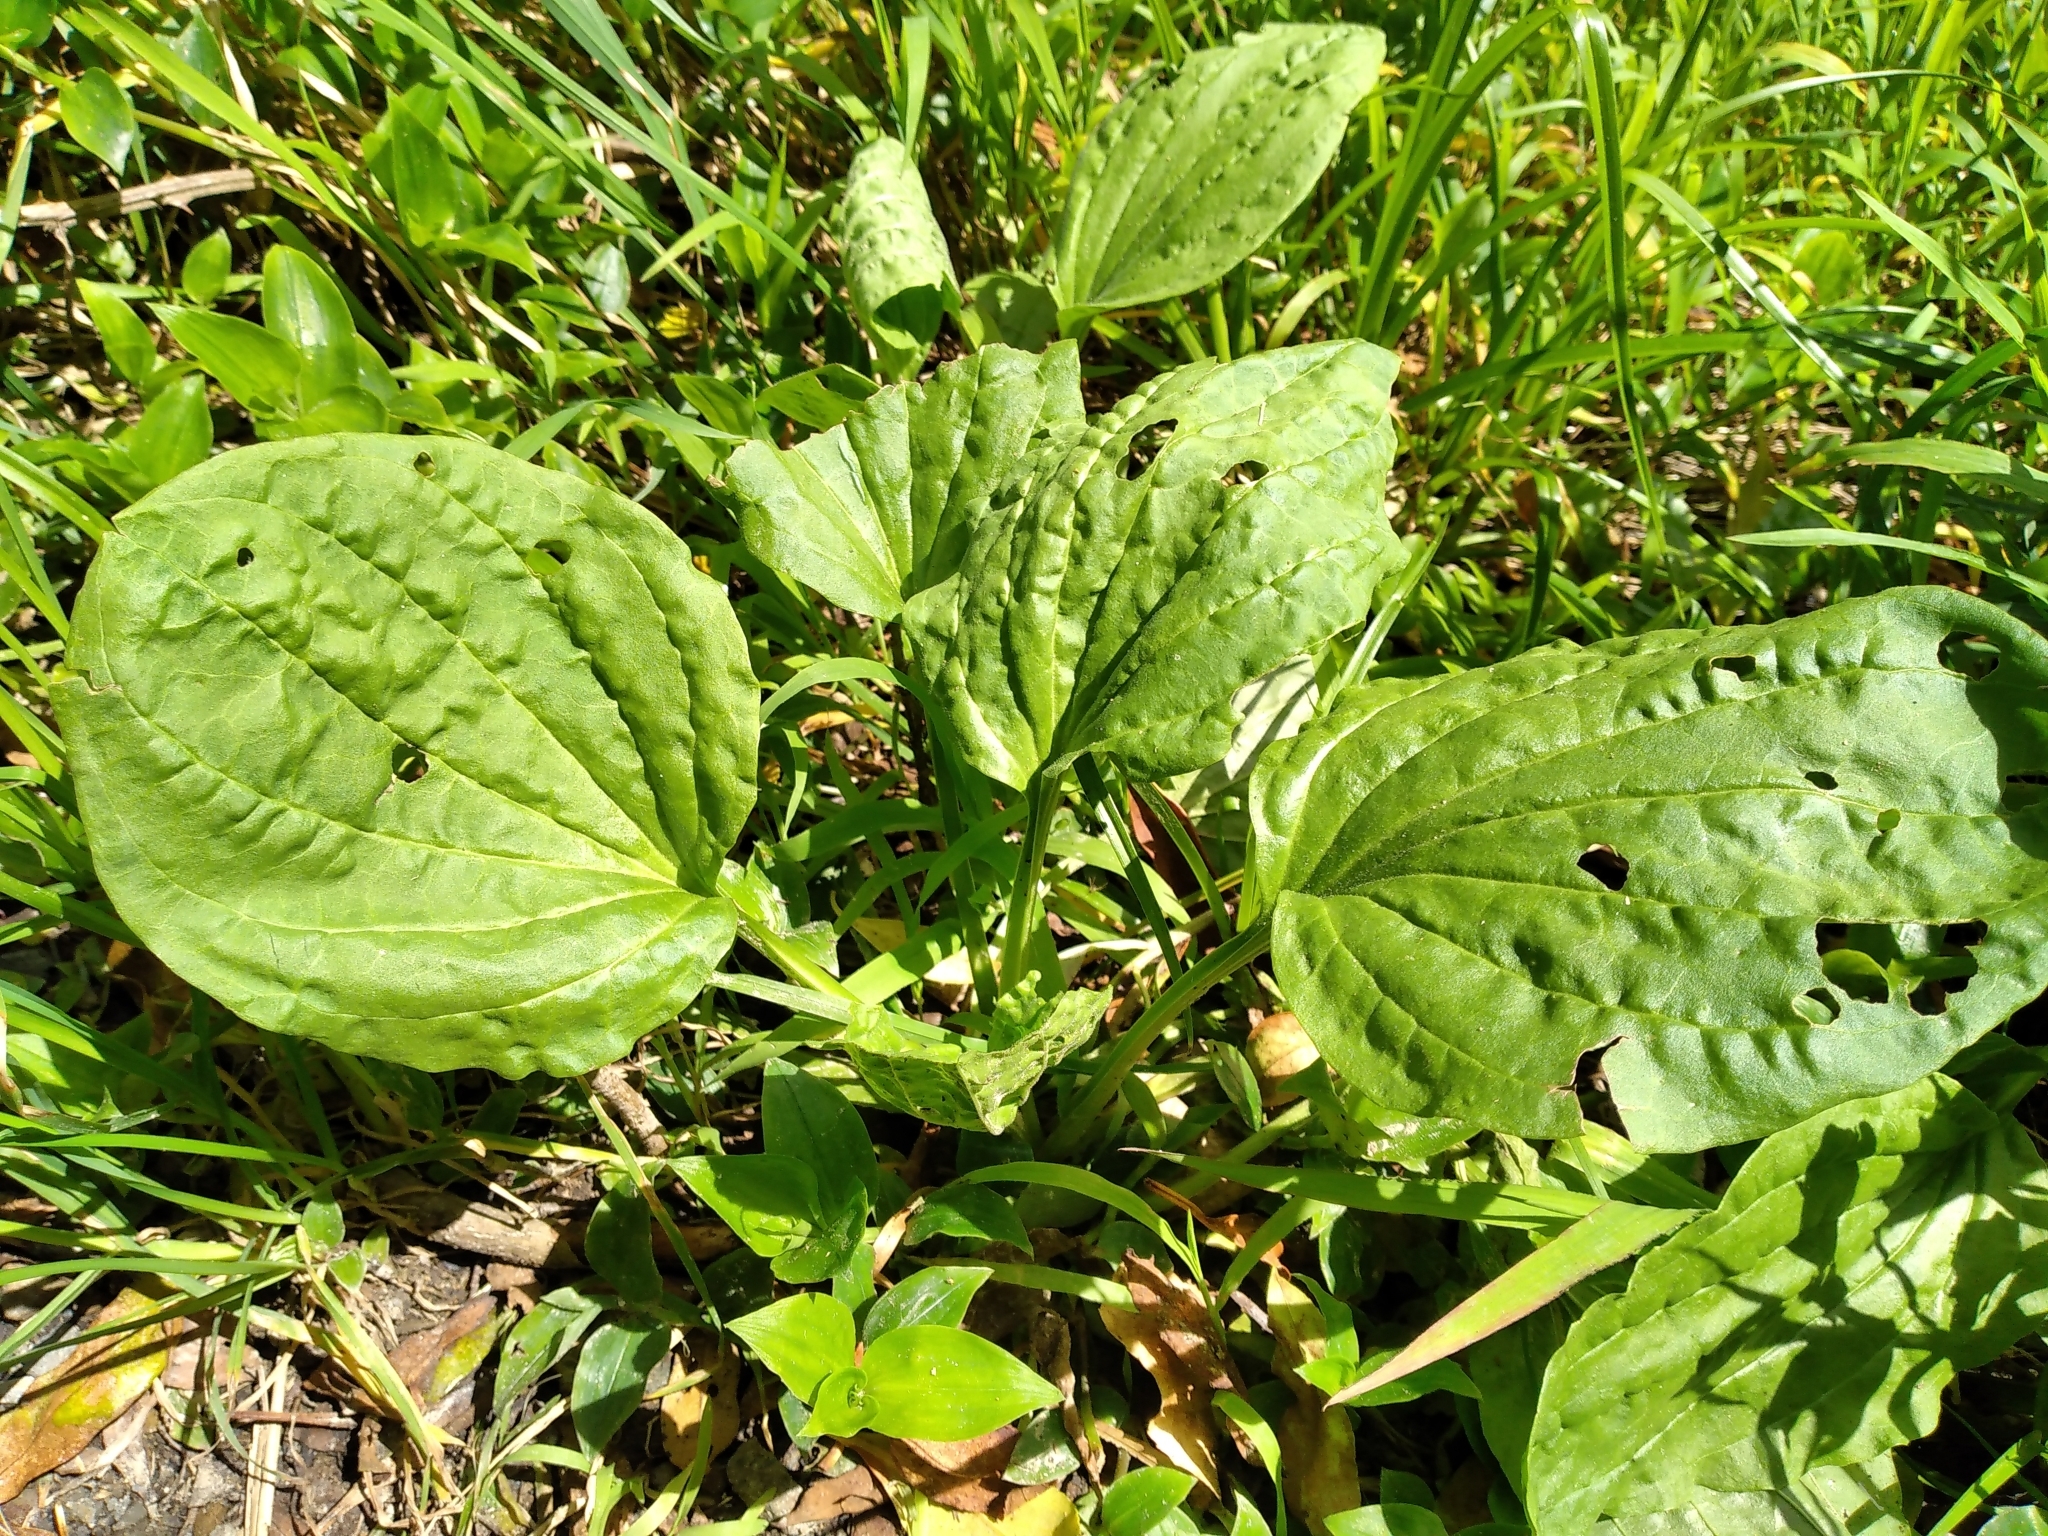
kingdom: Plantae
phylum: Tracheophyta
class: Magnoliopsida
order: Lamiales
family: Plantaginaceae
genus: Plantago
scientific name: Plantago major
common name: Common plantain
